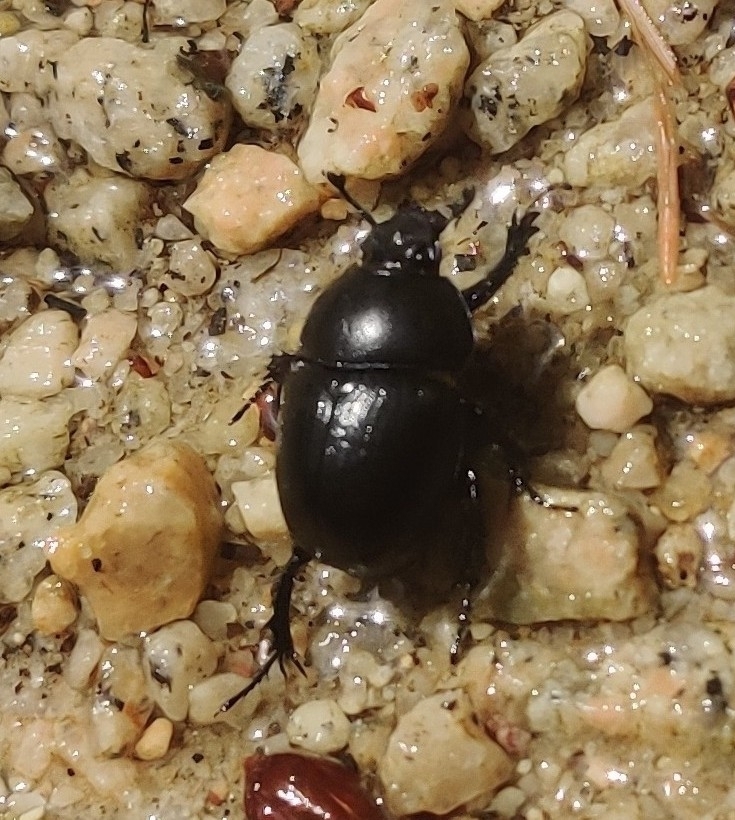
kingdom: Animalia
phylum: Arthropoda
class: Insecta
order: Coleoptera
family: Geotrupidae
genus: Anoplotrupes
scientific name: Anoplotrupes stercorosus
